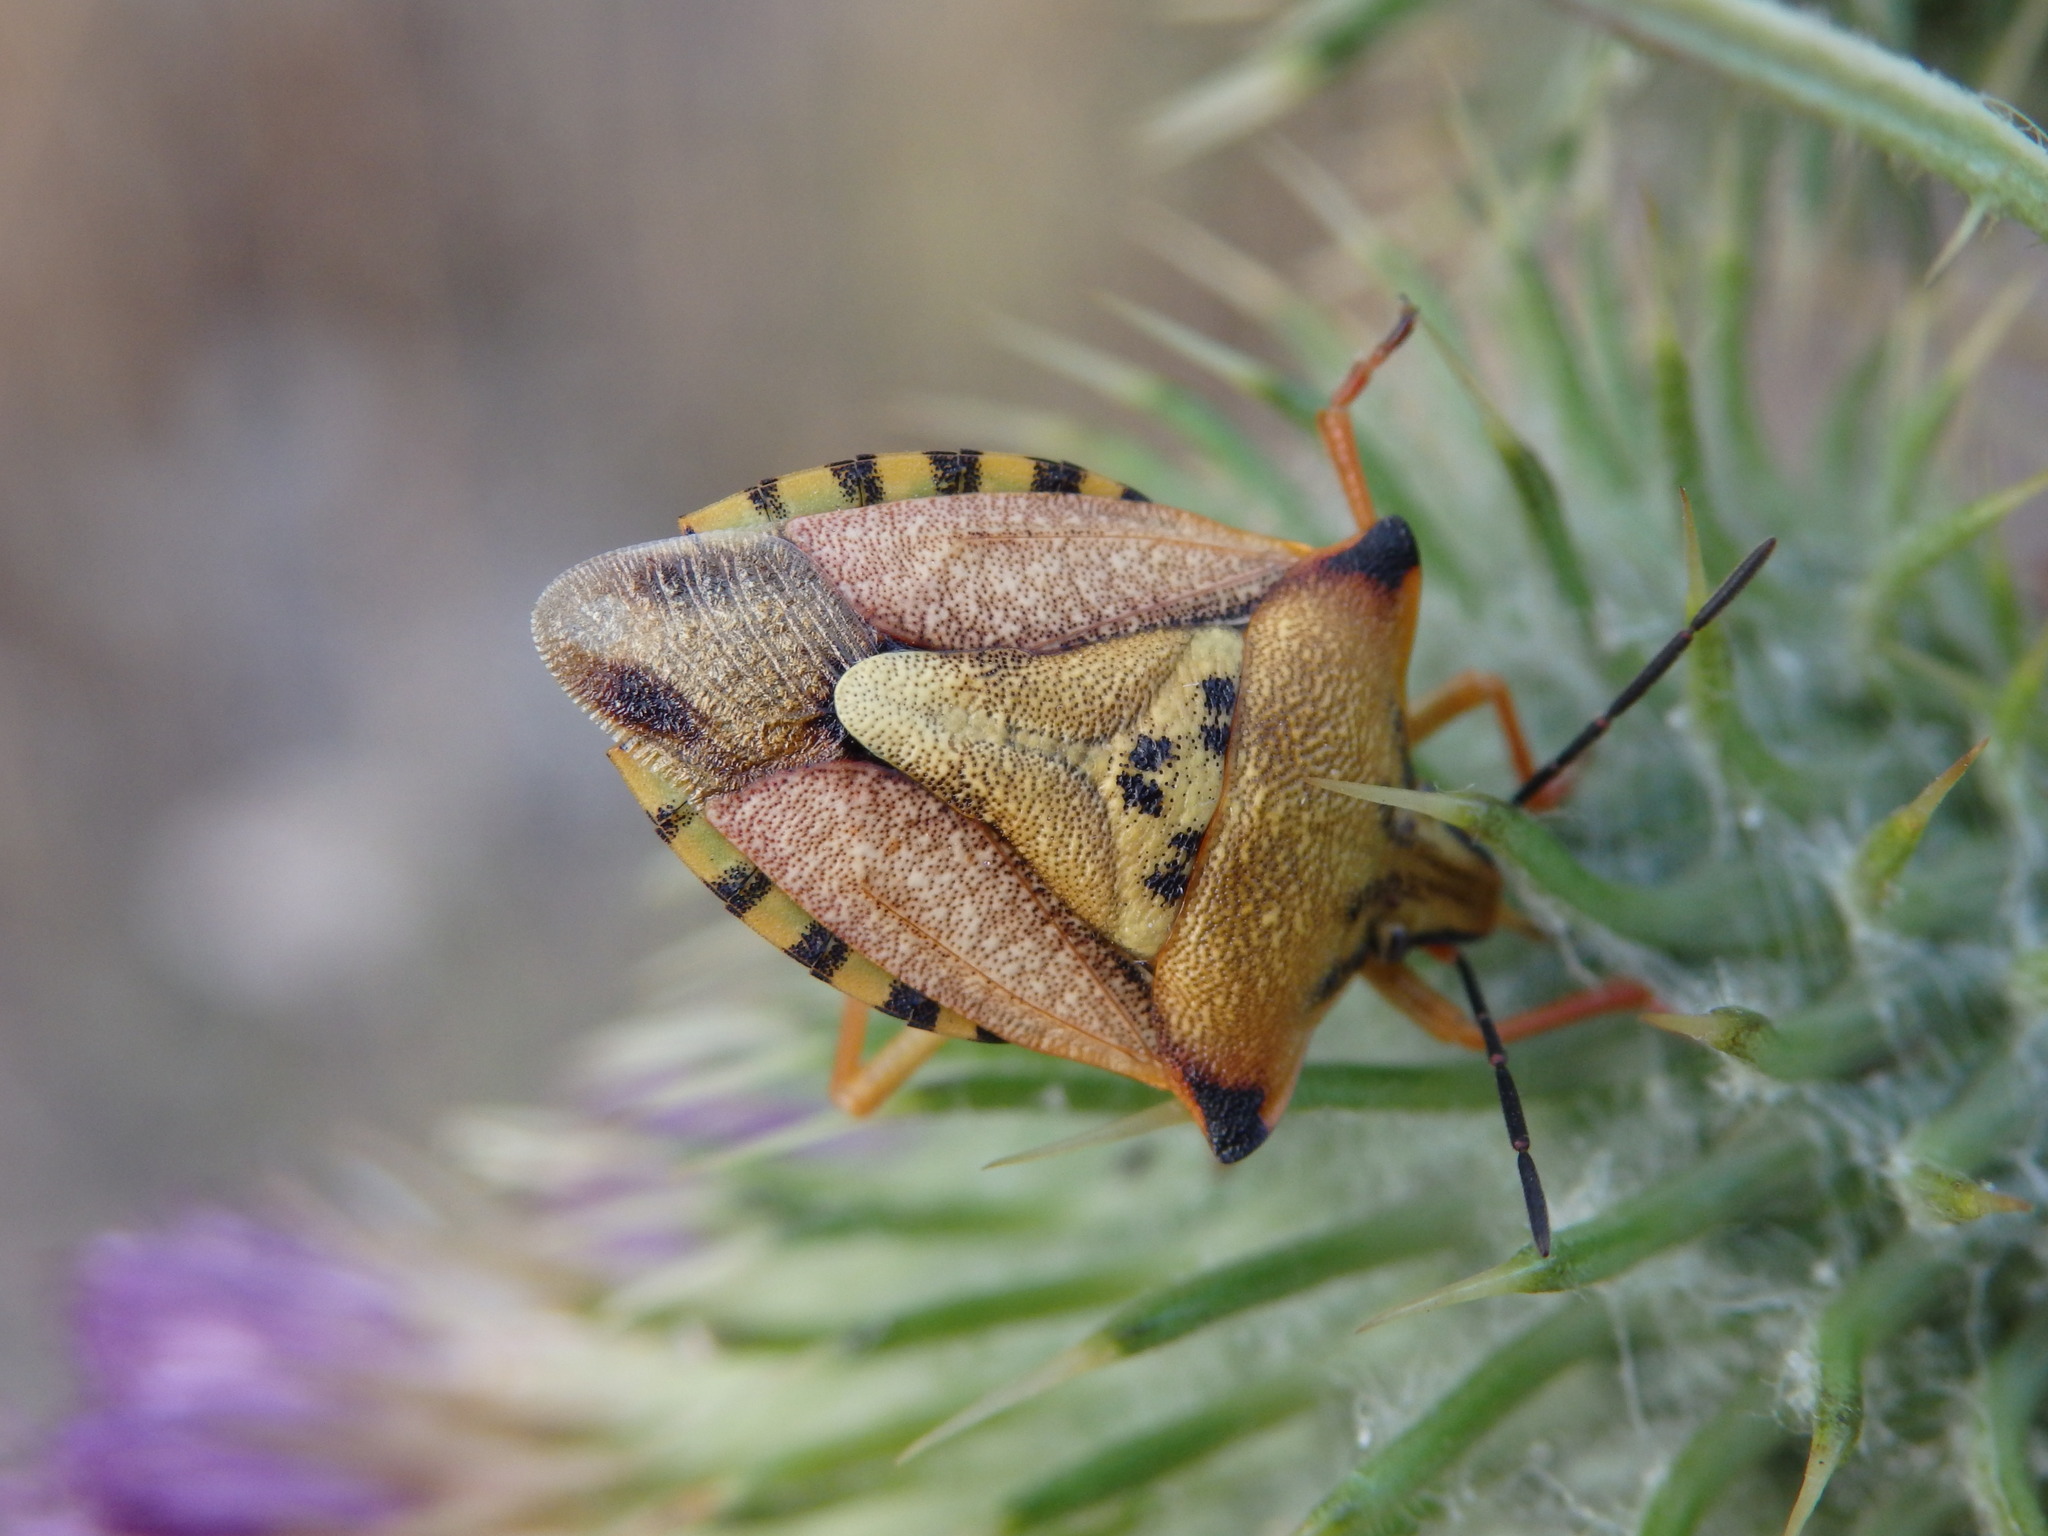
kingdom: Animalia
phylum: Arthropoda
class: Insecta
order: Hemiptera
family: Pentatomidae
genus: Carpocoris
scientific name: Carpocoris mediterraneus
